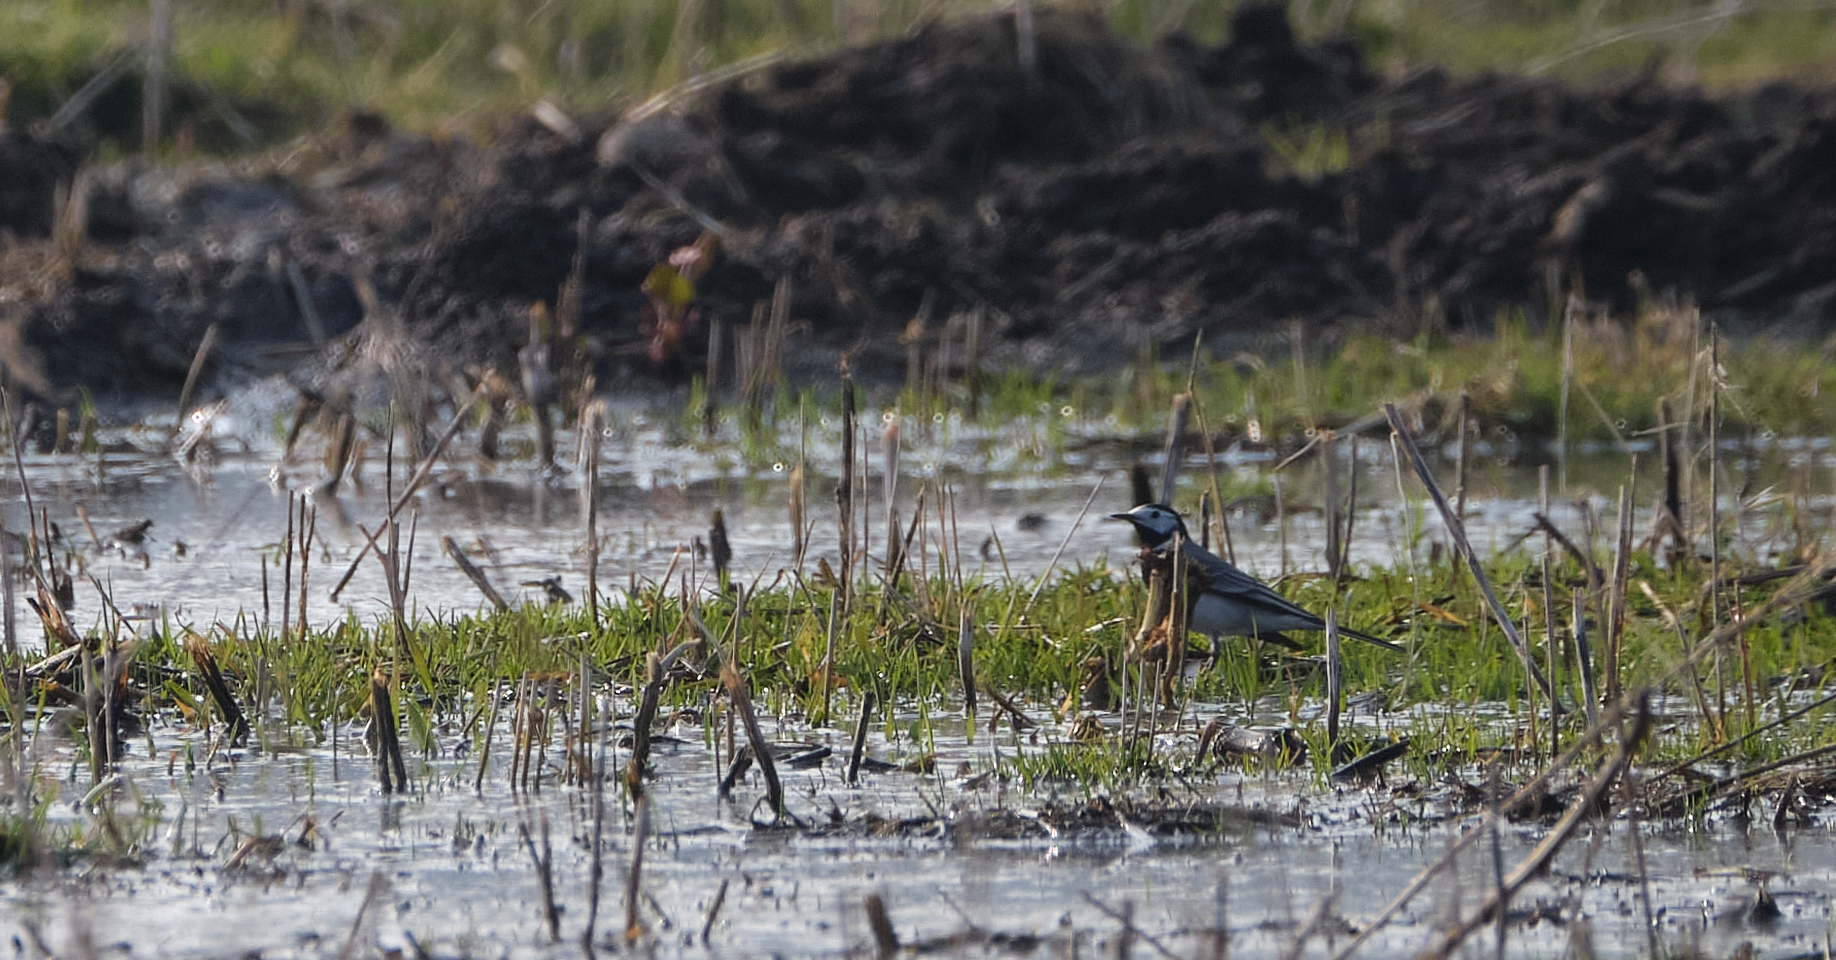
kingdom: Animalia
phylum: Chordata
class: Aves
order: Passeriformes
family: Motacillidae
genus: Motacilla
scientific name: Motacilla alba
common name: White wagtail
